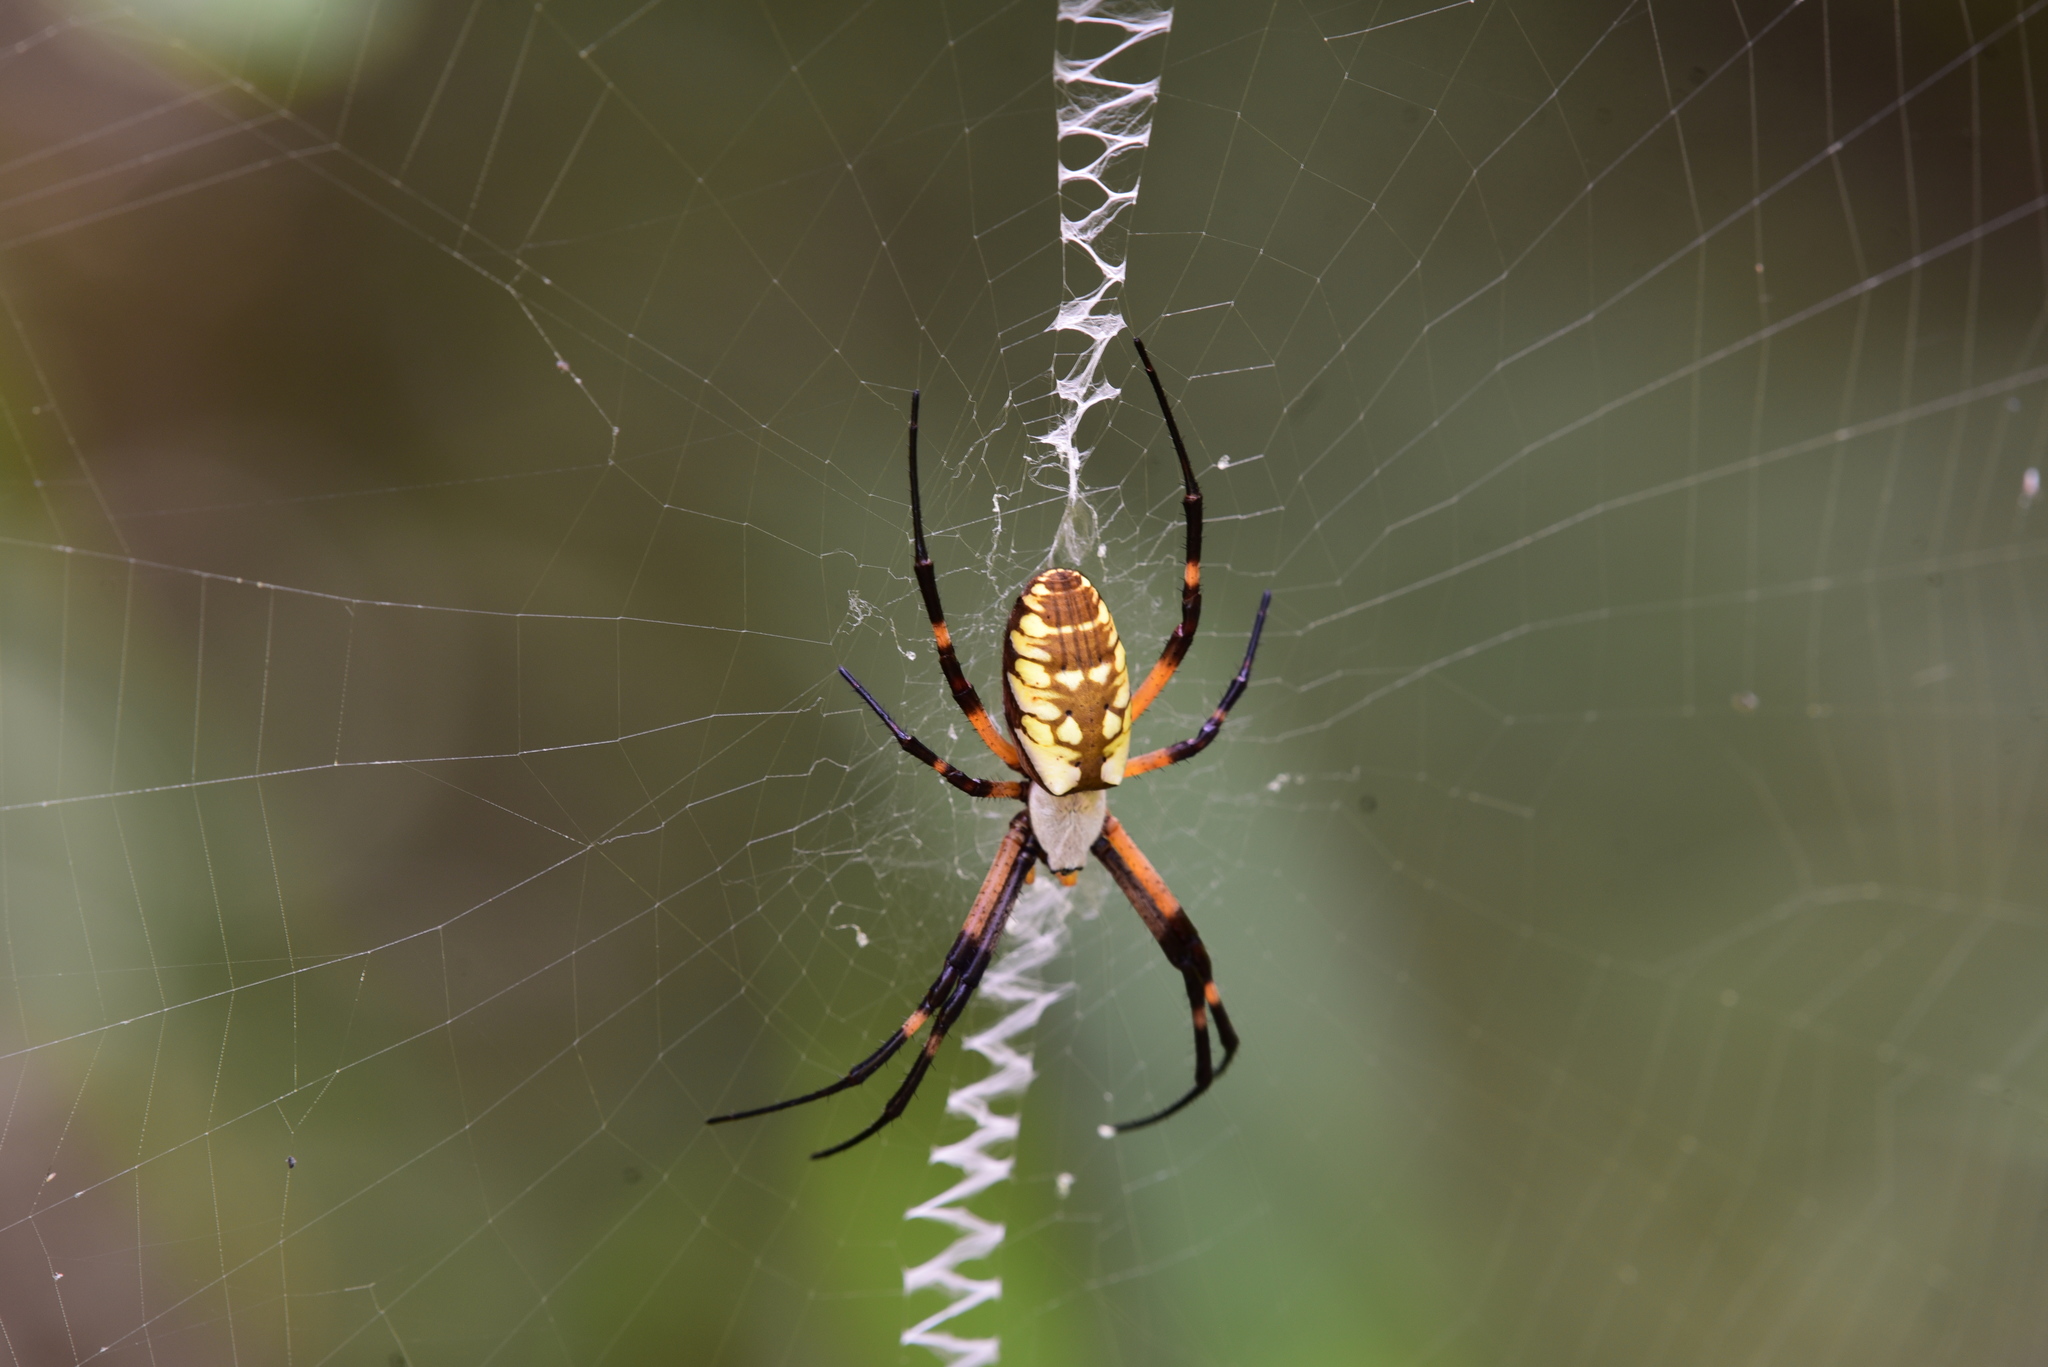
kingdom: Animalia
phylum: Arthropoda
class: Arachnida
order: Araneae
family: Araneidae
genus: Argiope
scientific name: Argiope aurantia
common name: Orb weavers
